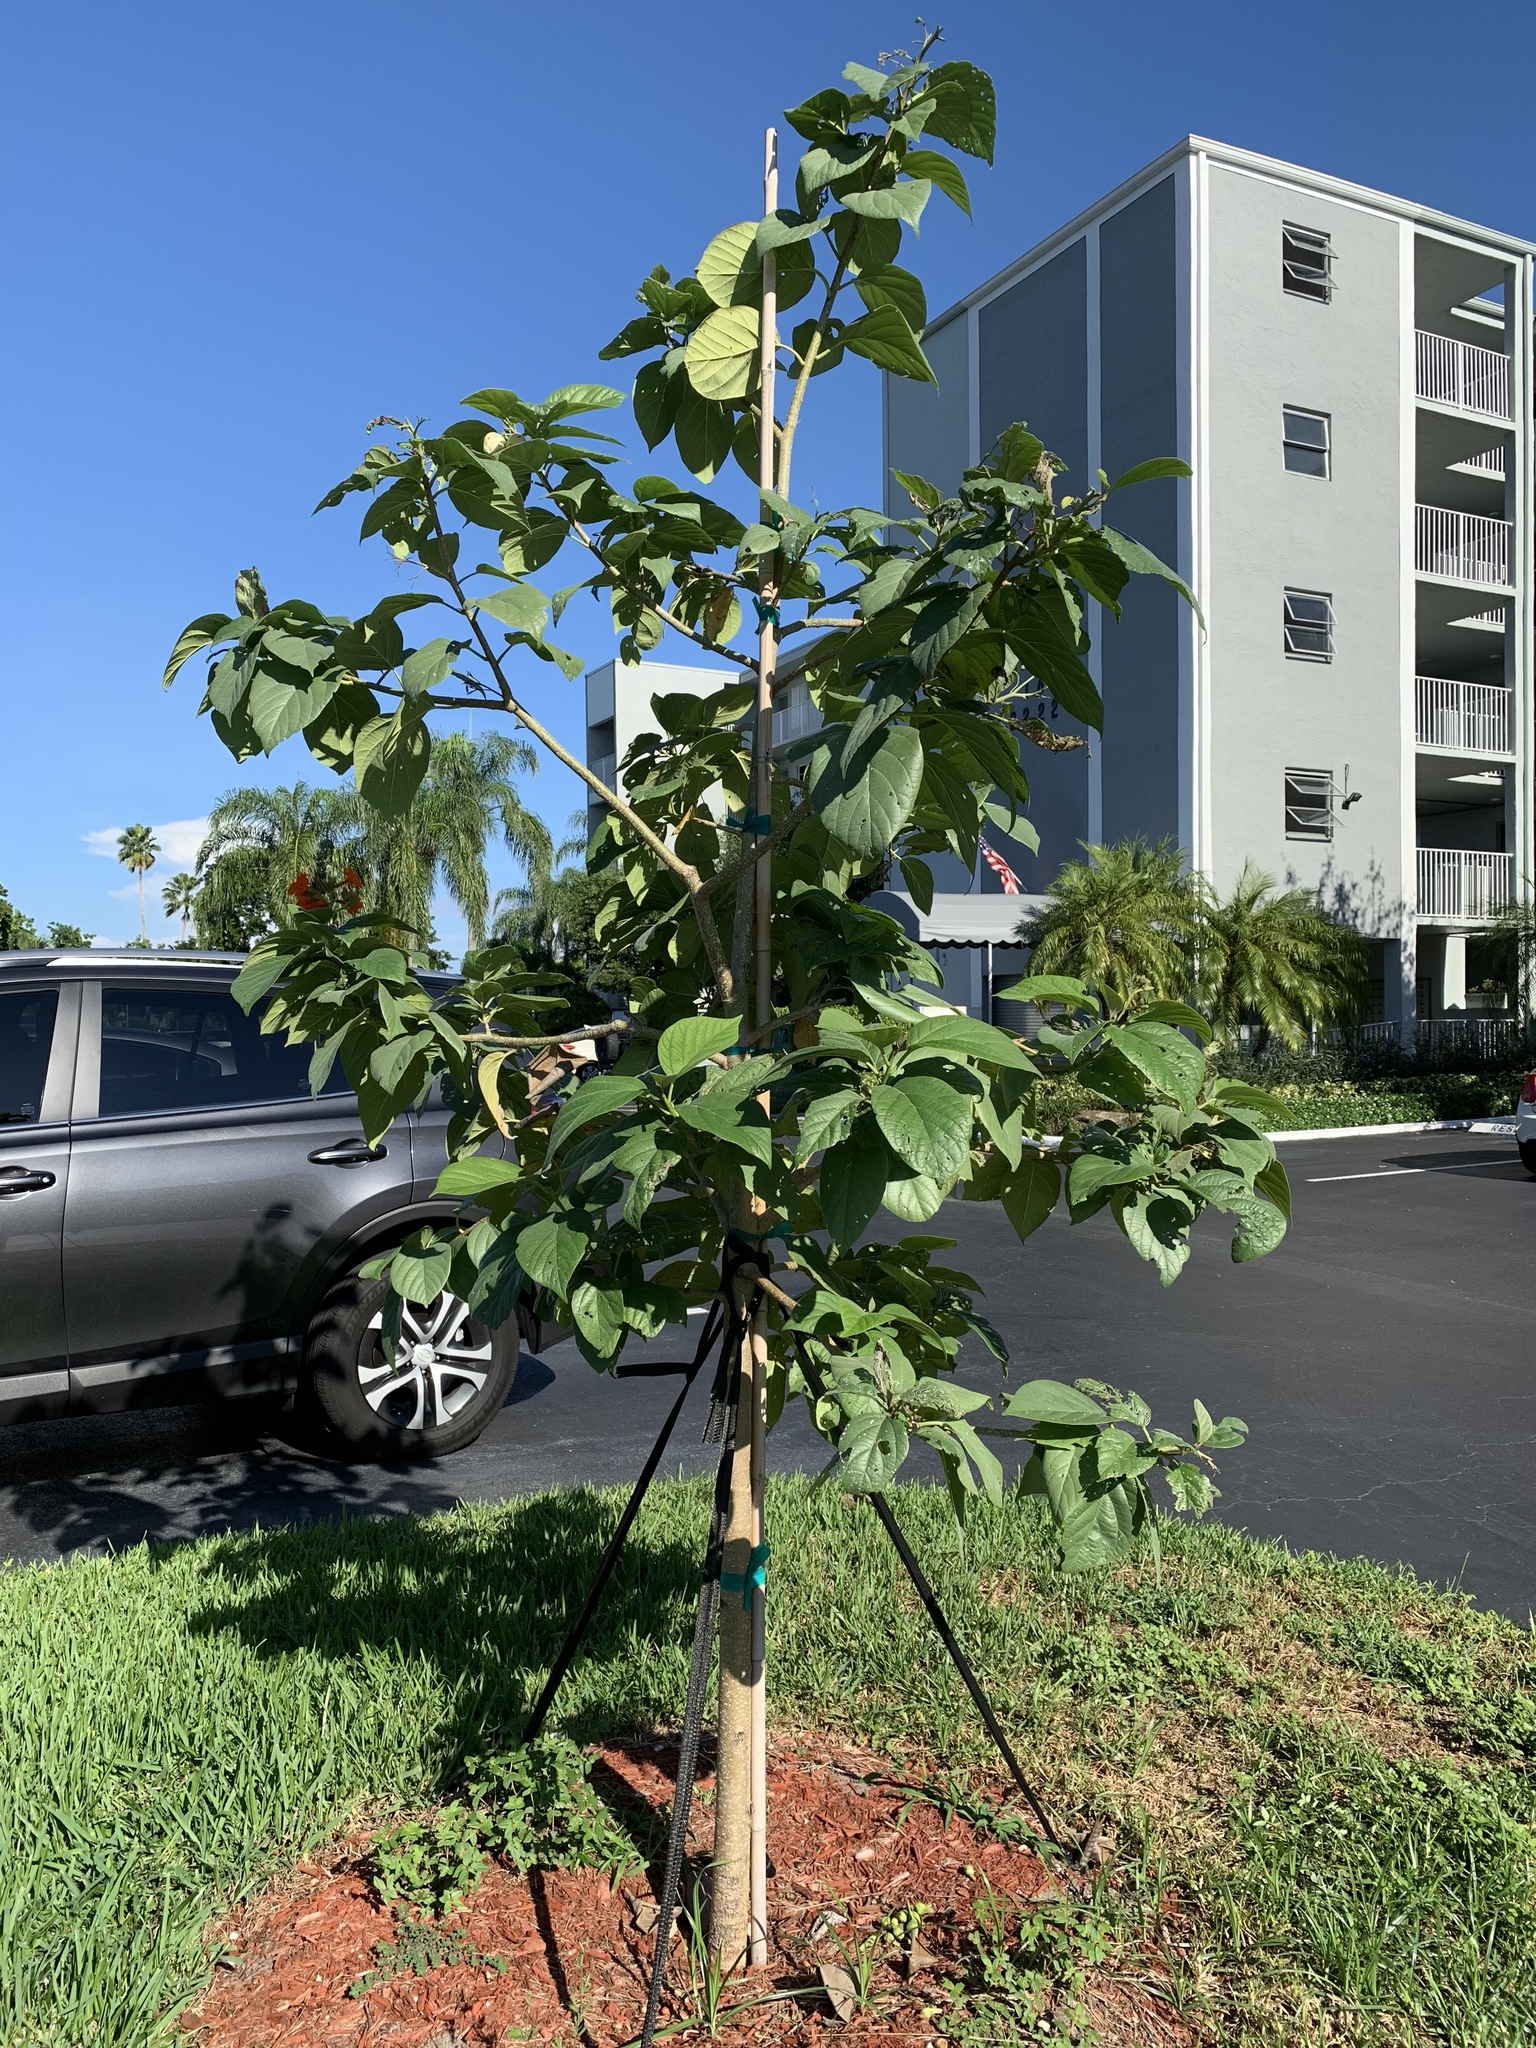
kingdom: Plantae
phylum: Tracheophyta
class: Magnoliopsida
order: Boraginales
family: Cordiaceae
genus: Cordia
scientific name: Cordia sebestena
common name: Largeleaf geigertree
